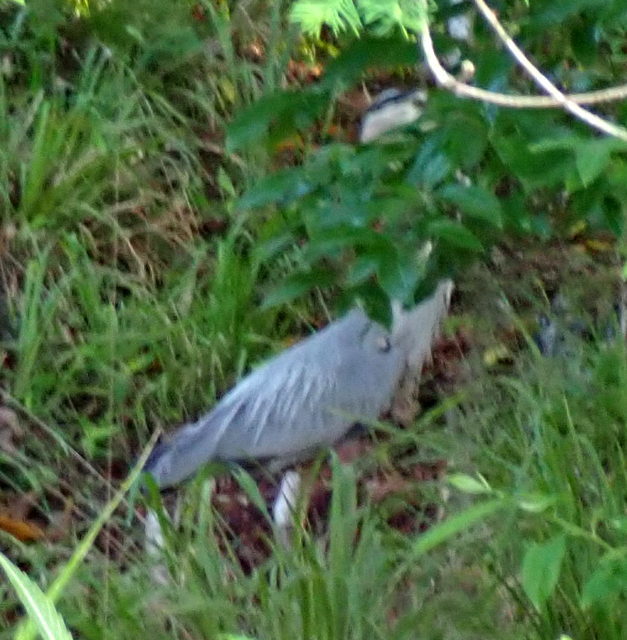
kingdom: Animalia
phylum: Chordata
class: Aves
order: Pelecaniformes
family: Ardeidae
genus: Ardea
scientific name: Ardea herodias
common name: Great blue heron
